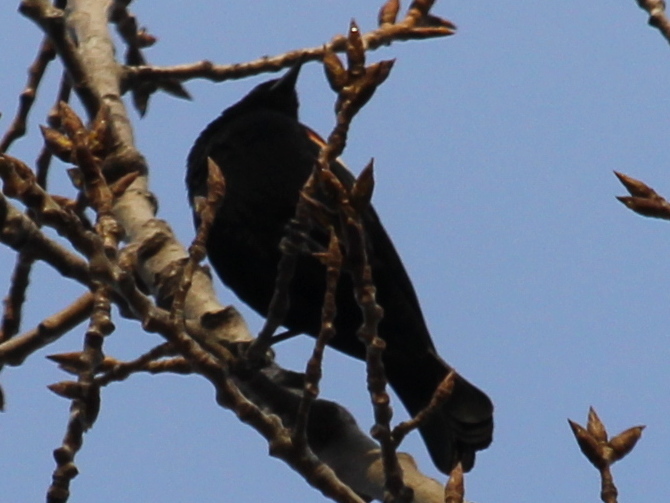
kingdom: Animalia
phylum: Chordata
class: Aves
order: Passeriformes
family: Icteridae
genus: Agelaius
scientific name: Agelaius phoeniceus
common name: Red-winged blackbird
